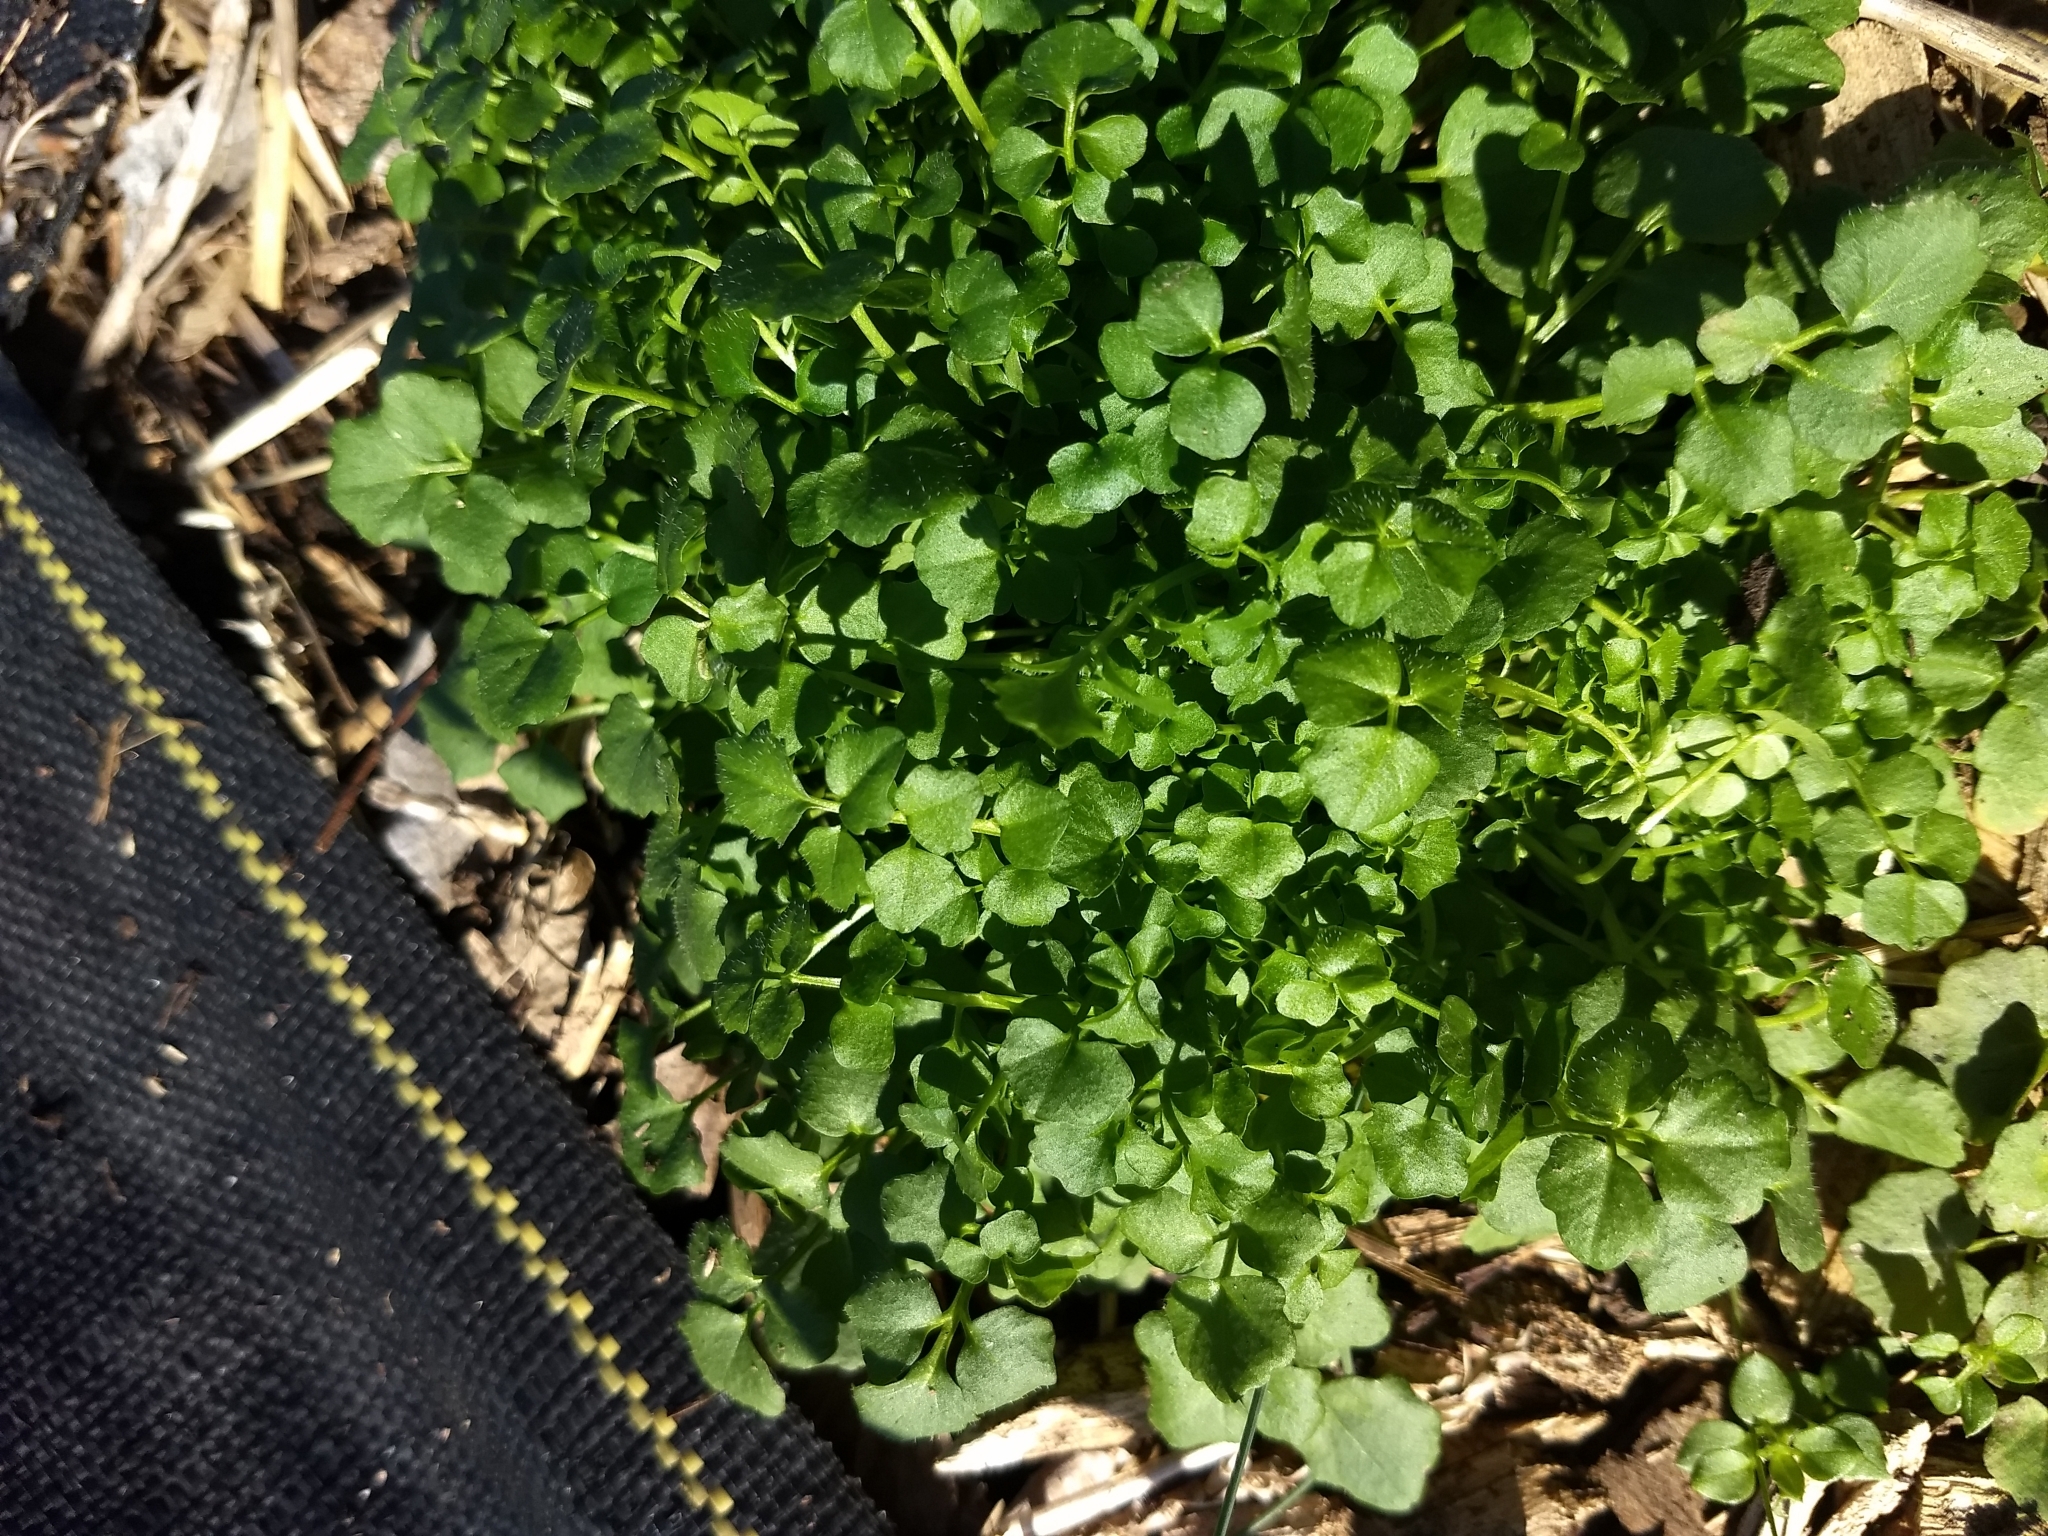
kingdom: Plantae
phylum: Tracheophyta
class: Magnoliopsida
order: Brassicales
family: Brassicaceae
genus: Cardamine
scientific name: Cardamine hirsuta
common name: Hairy bittercress
